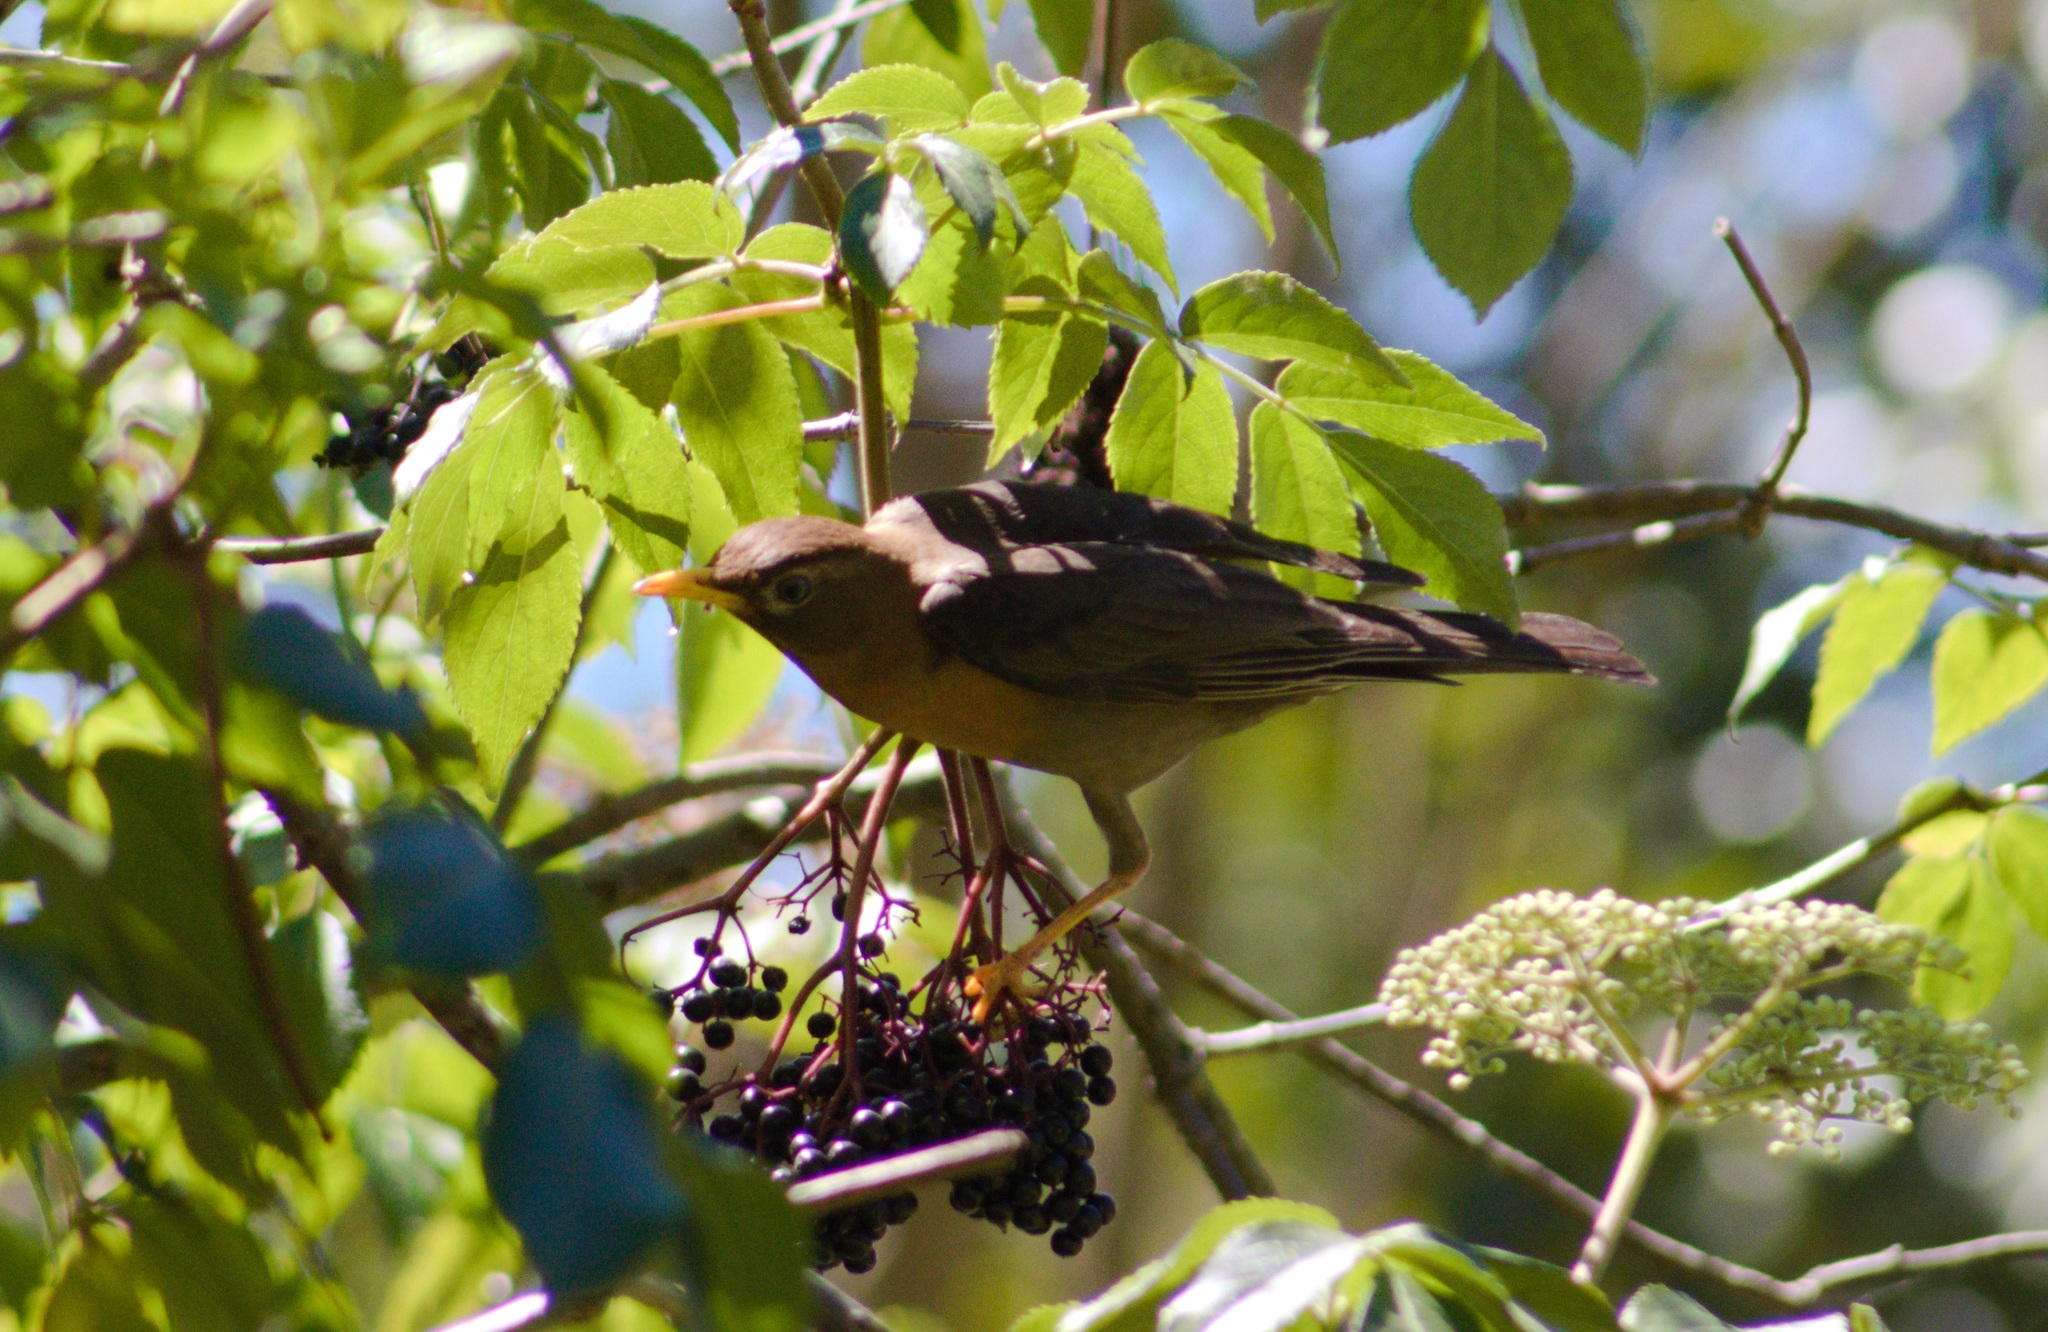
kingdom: Animalia
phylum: Chordata
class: Aves
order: Passeriformes
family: Turdidae
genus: Turdus
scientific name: Turdus rufitorques
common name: Rufous-collared thrush
